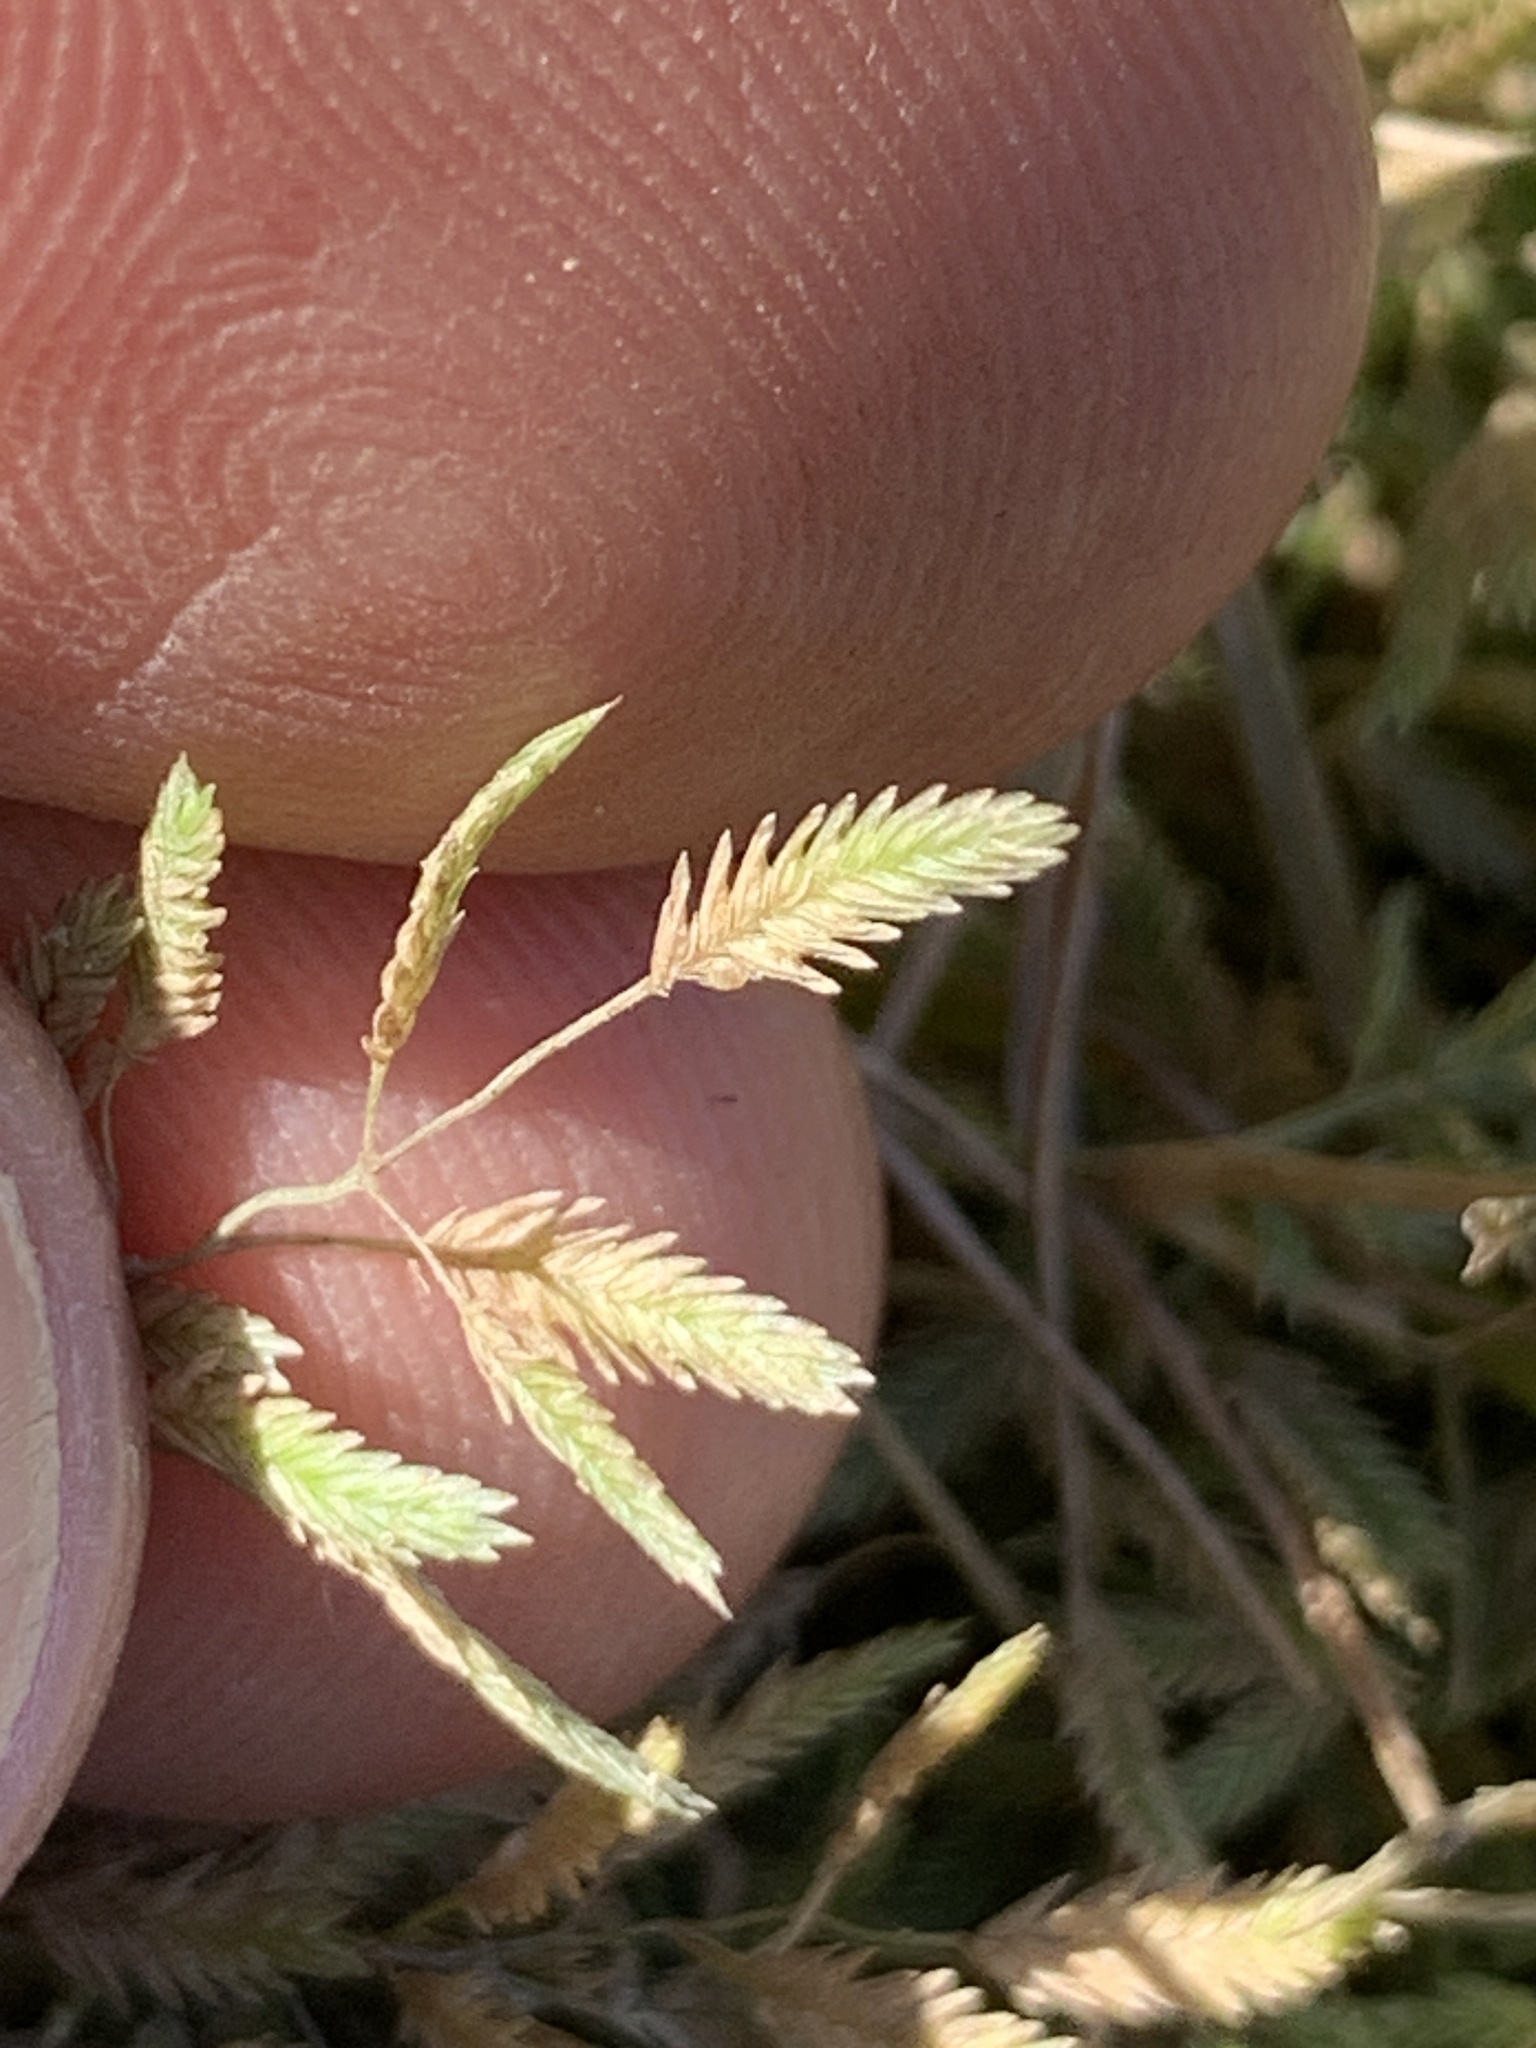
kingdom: Plantae
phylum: Tracheophyta
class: Liliopsida
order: Poales
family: Poaceae
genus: Eragrostis
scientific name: Eragrostis hypnoides
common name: Creeping love grass
